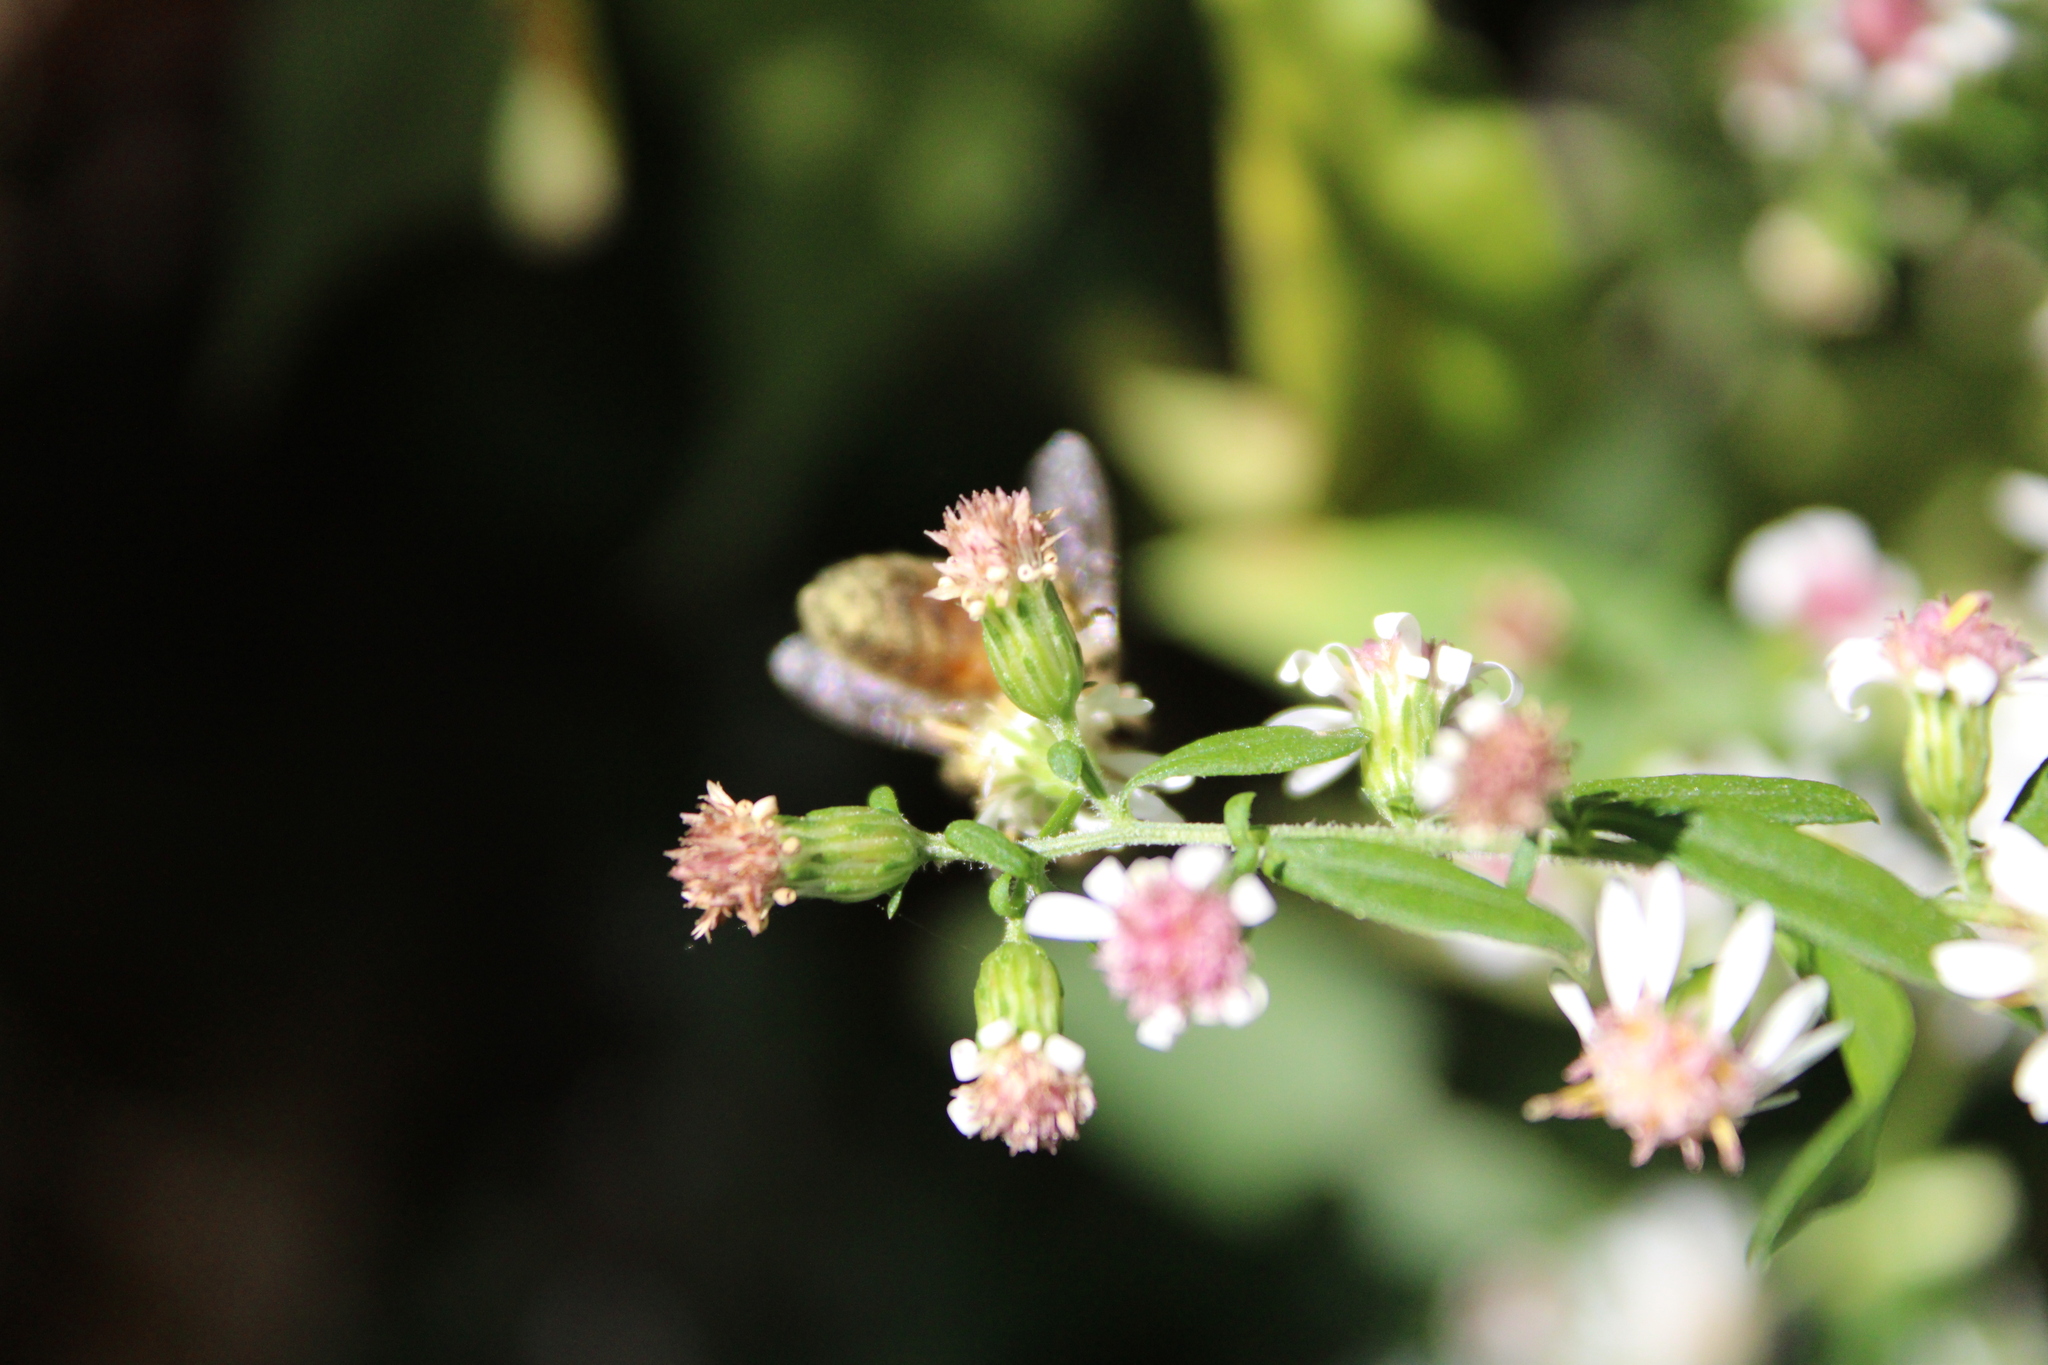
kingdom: Animalia
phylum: Arthropoda
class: Insecta
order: Hymenoptera
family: Apidae
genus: Apis
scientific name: Apis mellifera
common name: Honey bee
